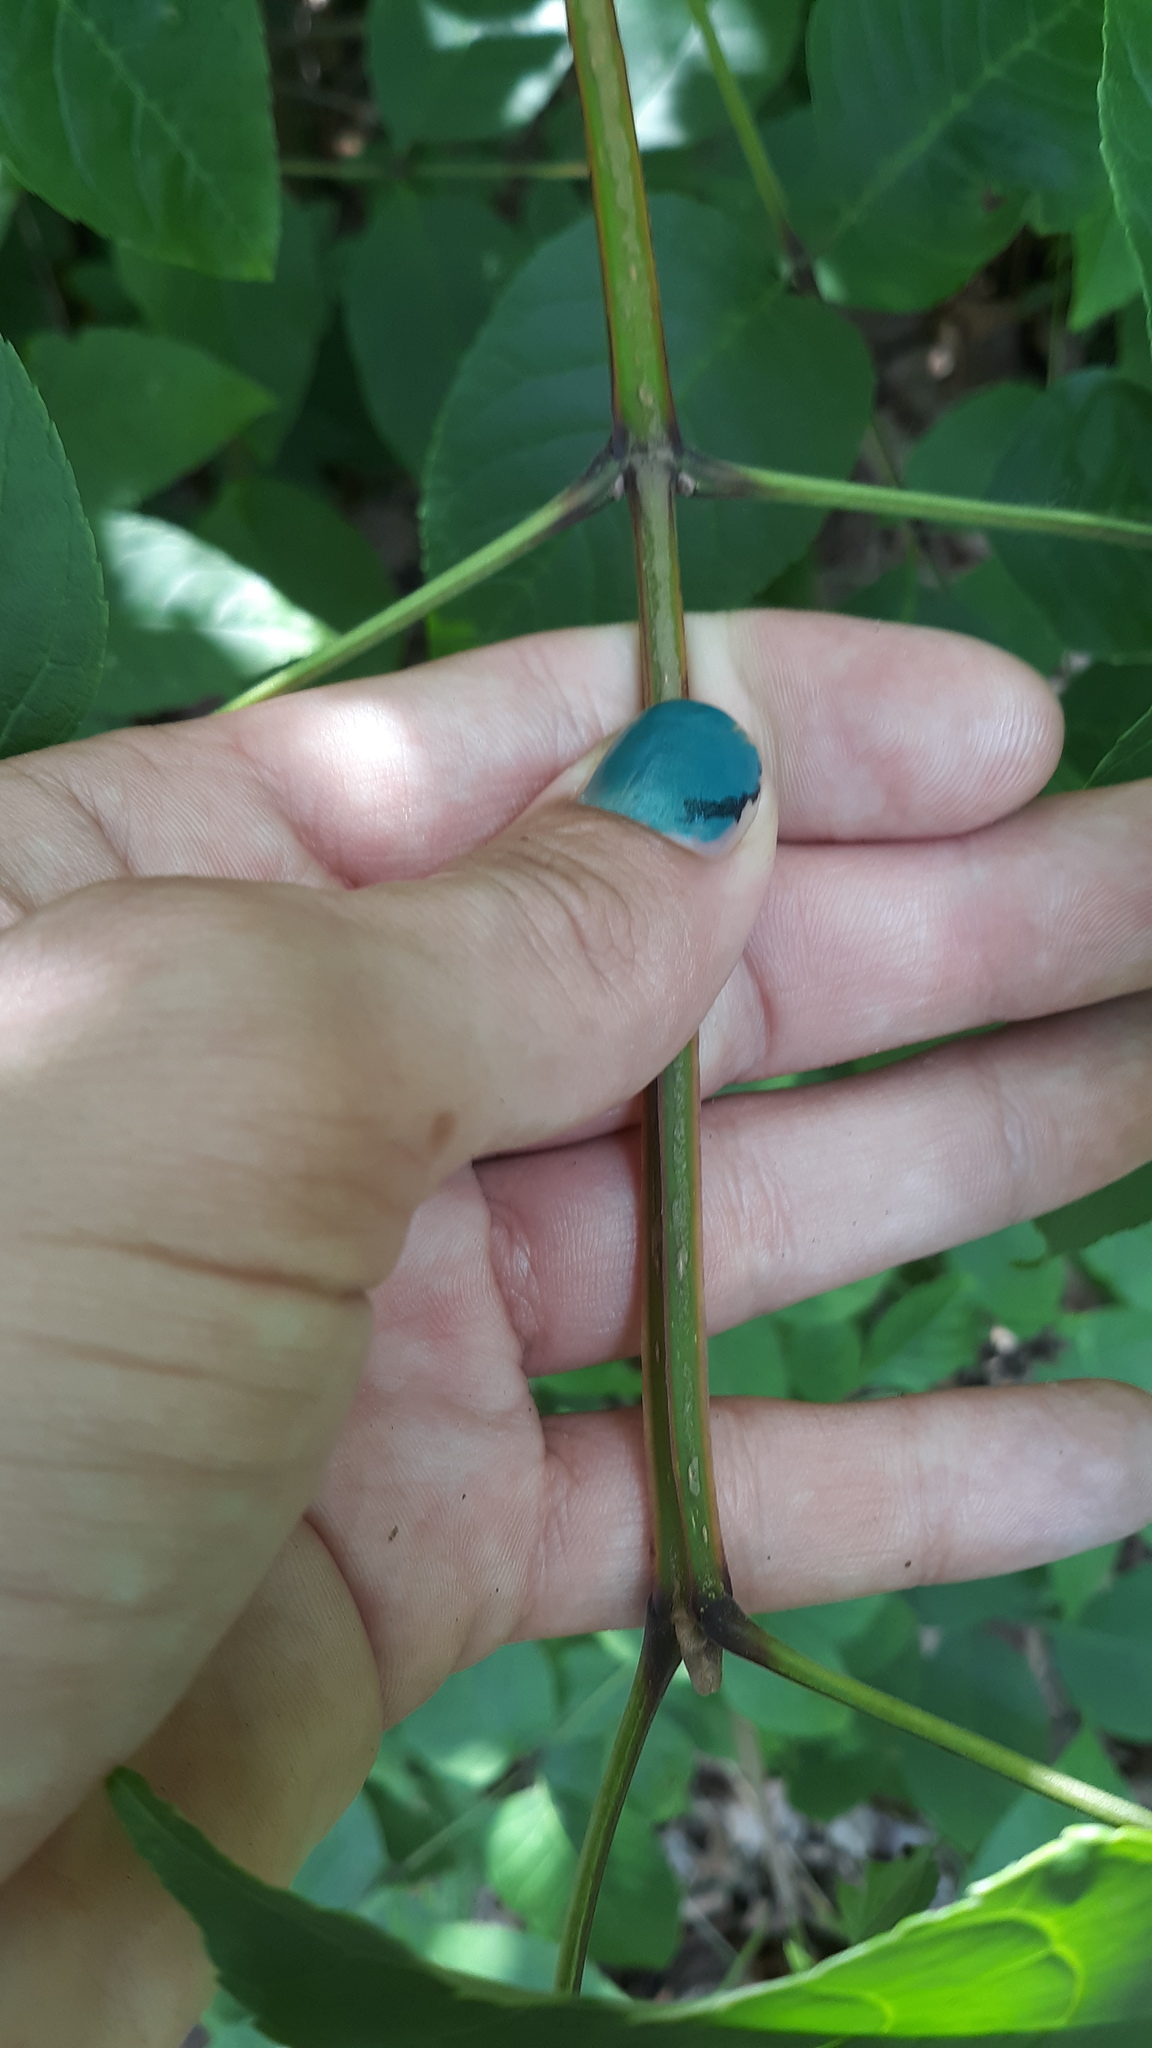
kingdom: Plantae
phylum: Tracheophyta
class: Magnoliopsida
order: Lamiales
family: Oleaceae
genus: Fraxinus
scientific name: Fraxinus quadrangulata
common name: Blue ash
